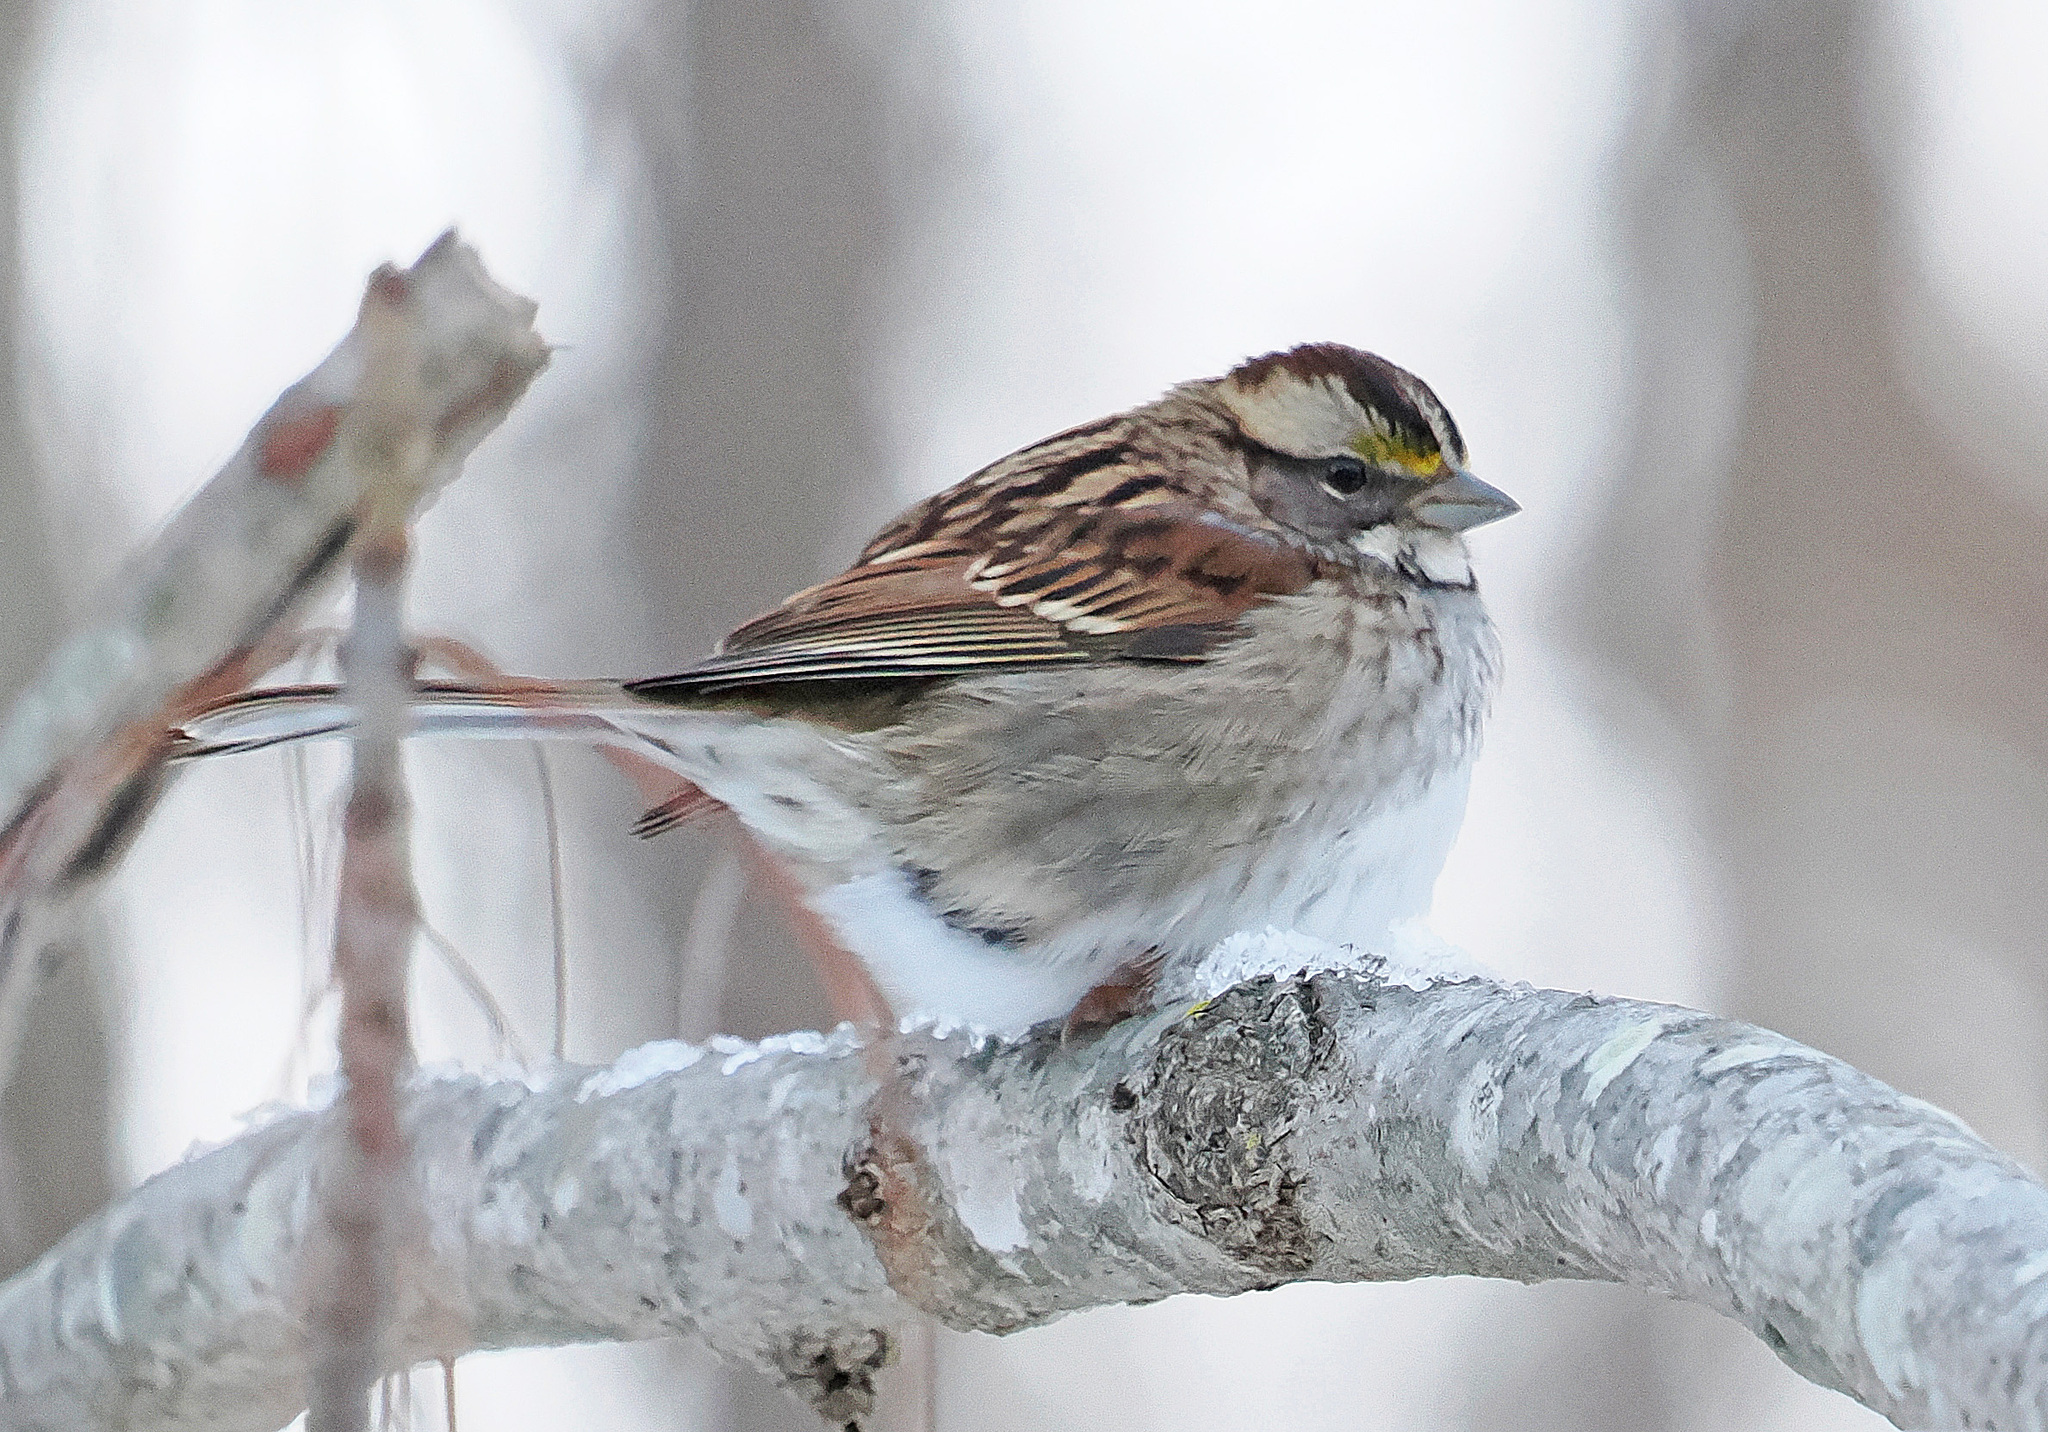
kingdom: Animalia
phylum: Chordata
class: Aves
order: Passeriformes
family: Passerellidae
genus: Zonotrichia
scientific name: Zonotrichia albicollis
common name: White-throated sparrow
